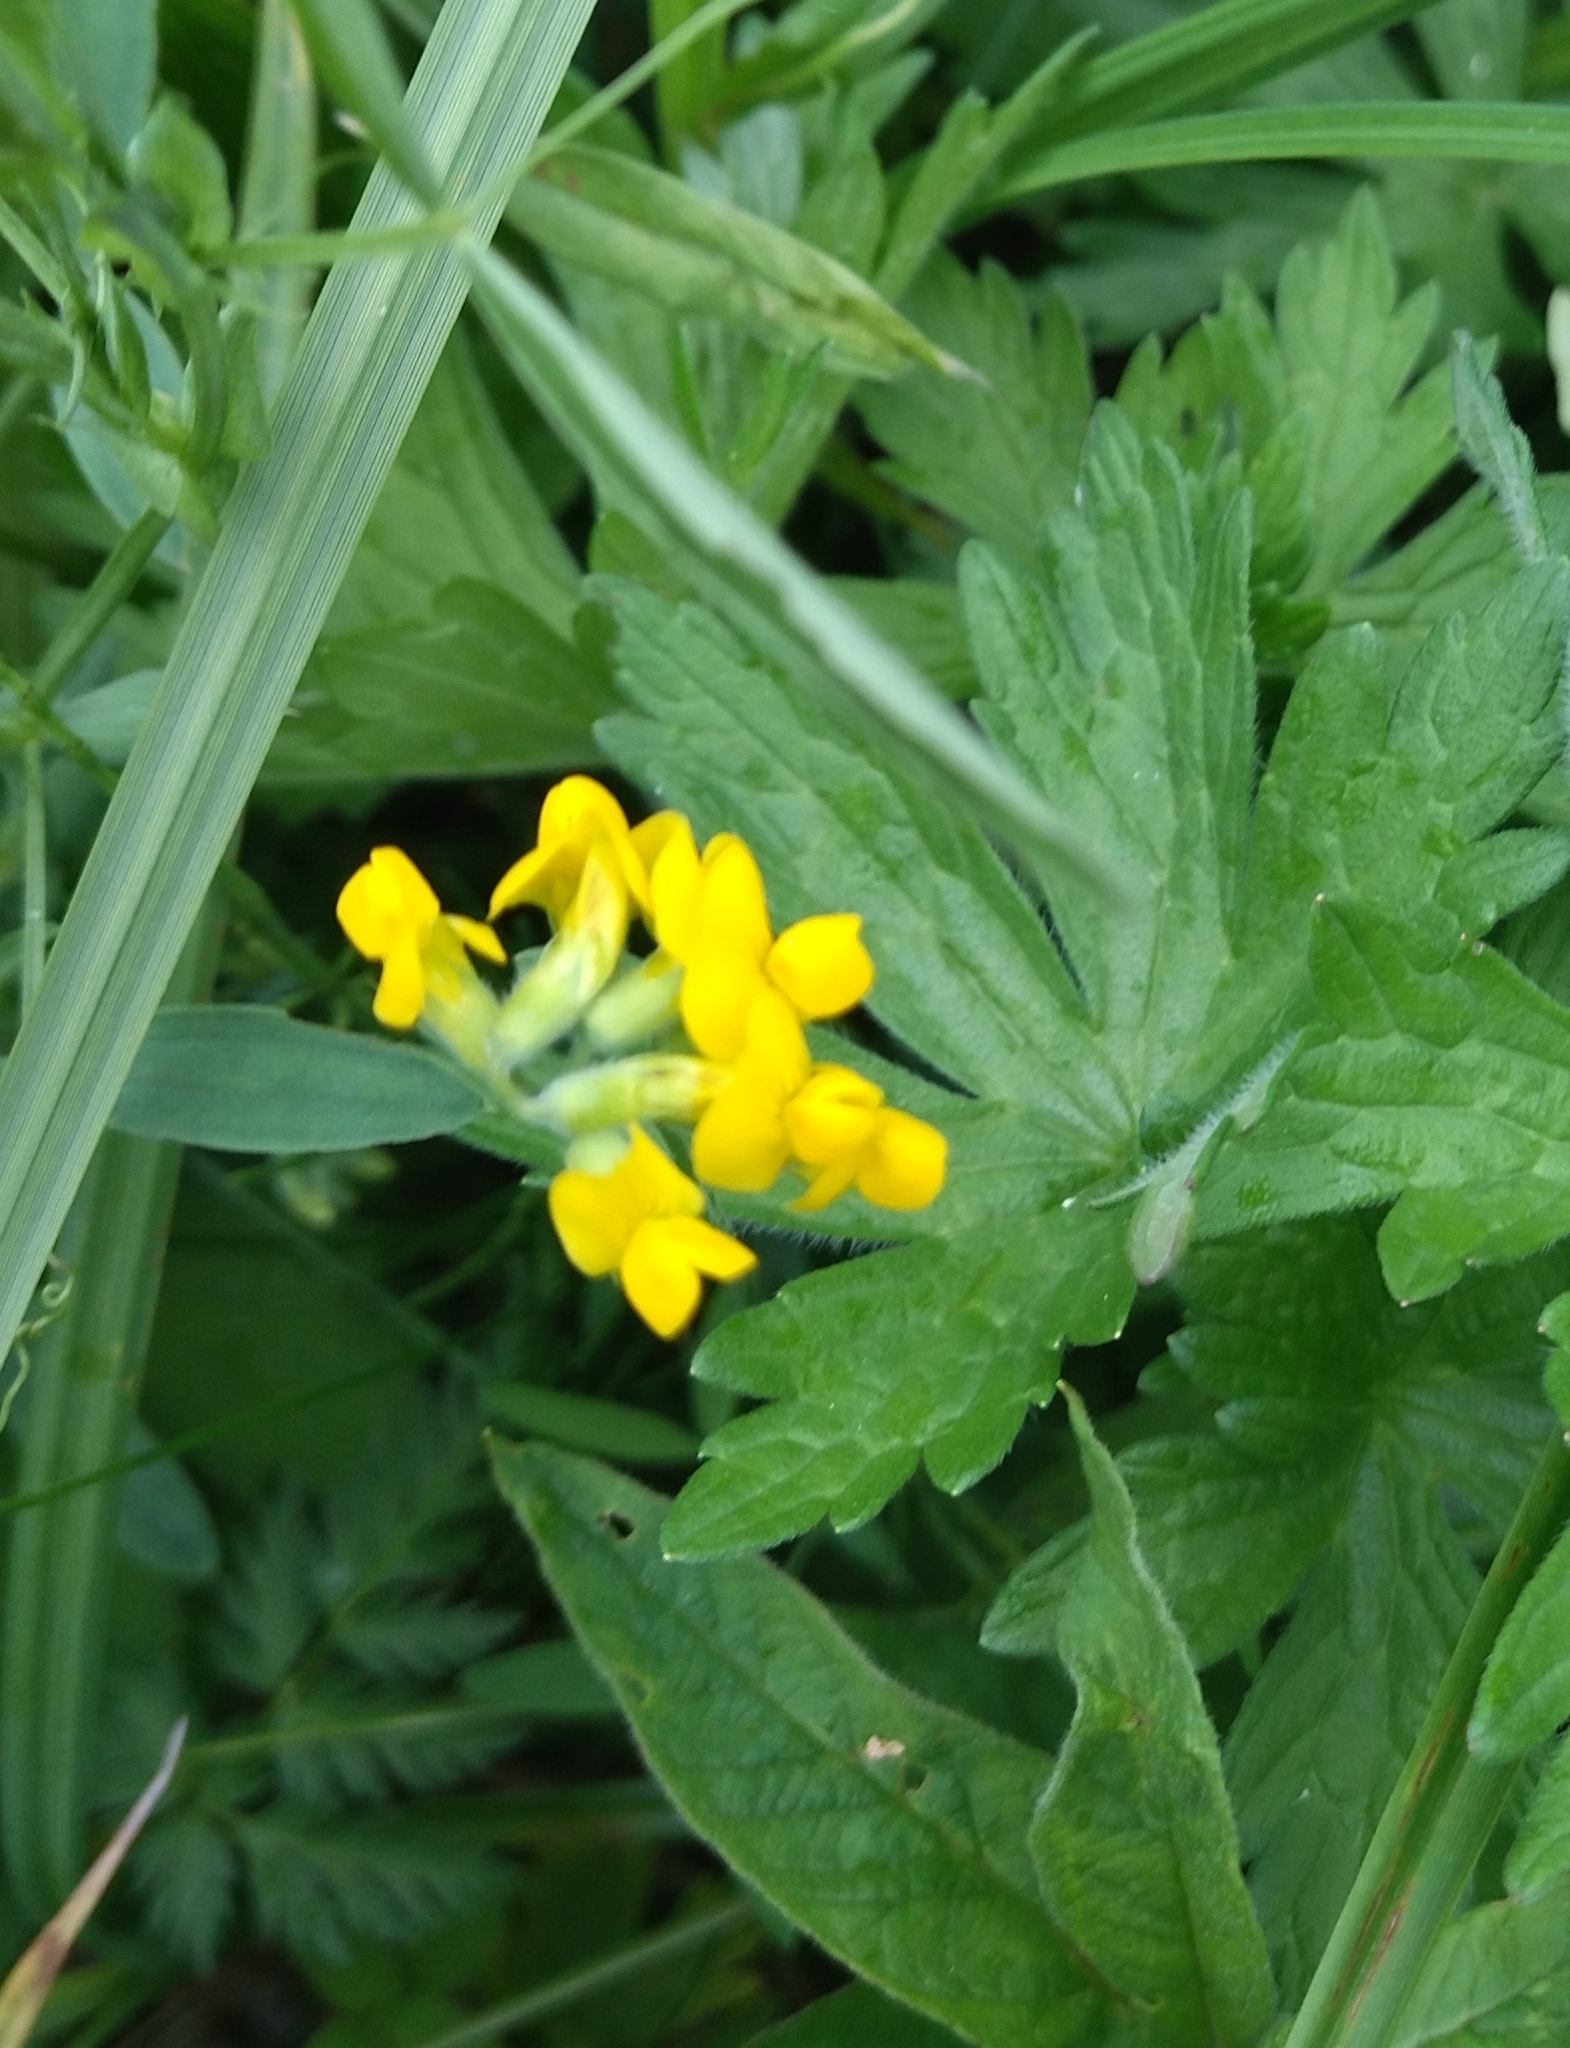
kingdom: Plantae
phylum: Tracheophyta
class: Magnoliopsida
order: Fabales
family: Fabaceae
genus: Lathyrus
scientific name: Lathyrus pratensis
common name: Meadow vetchling
